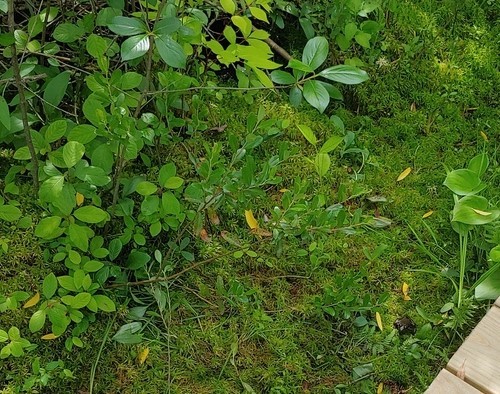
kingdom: Plantae
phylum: Tracheophyta
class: Magnoliopsida
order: Ericales
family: Ericaceae
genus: Chamaedaphne
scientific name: Chamaedaphne calyculata
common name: Leatherleaf
